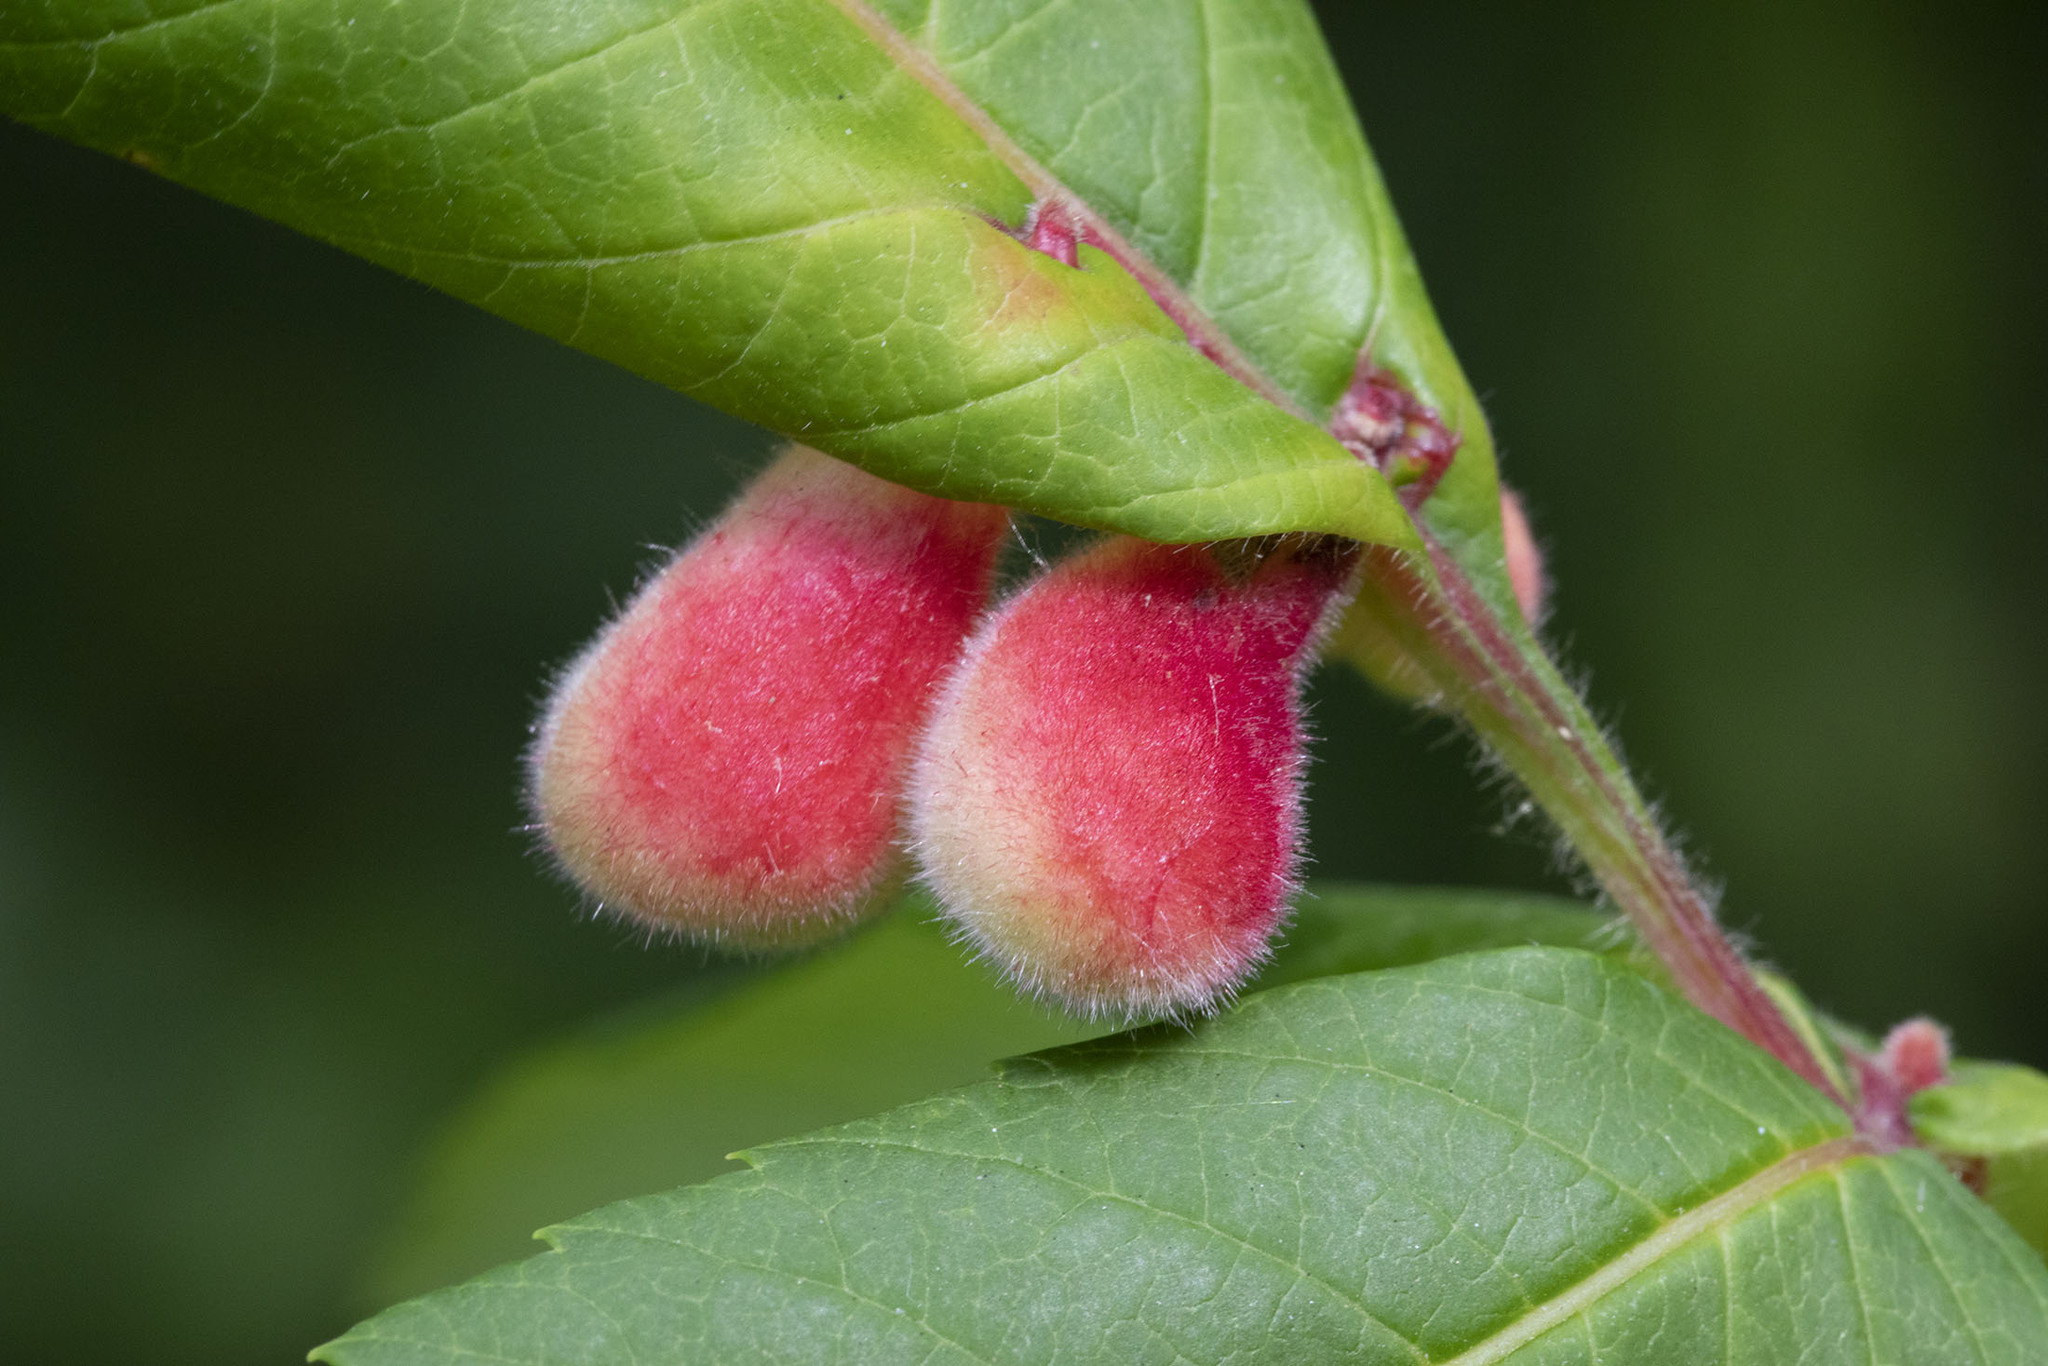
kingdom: Animalia
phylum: Arthropoda
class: Insecta
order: Hemiptera
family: Aphididae
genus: Melaphis
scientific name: Melaphis rhois
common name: Sumac gall aphid
